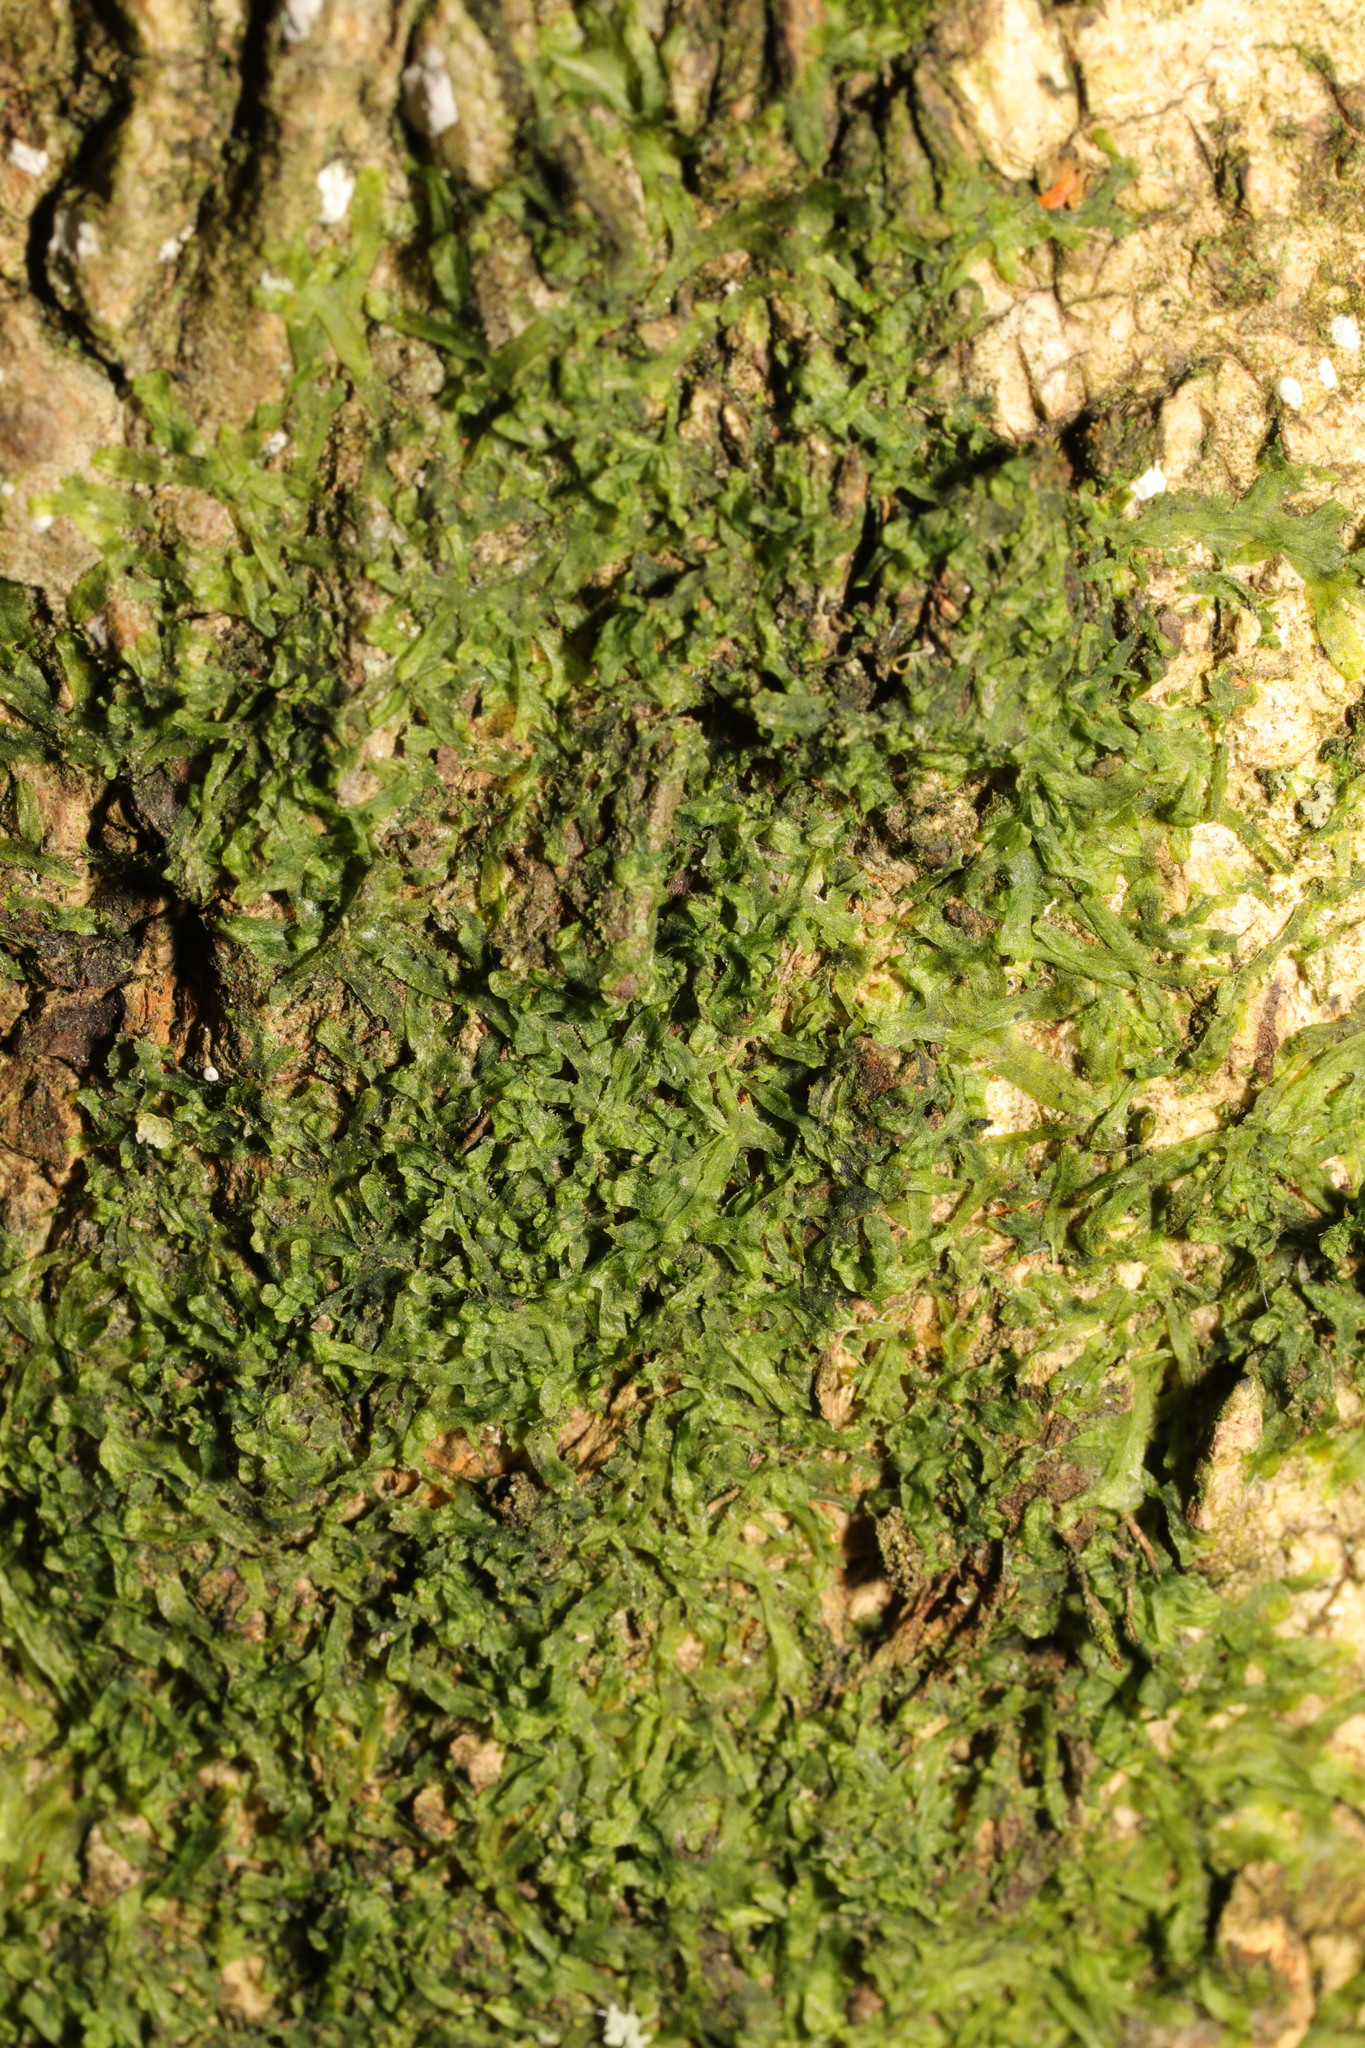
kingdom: Plantae
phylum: Marchantiophyta
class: Jungermanniopsida
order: Metzgeriales
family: Metzgeriaceae
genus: Metzgeria
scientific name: Metzgeria furcata
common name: Forked veilwort
